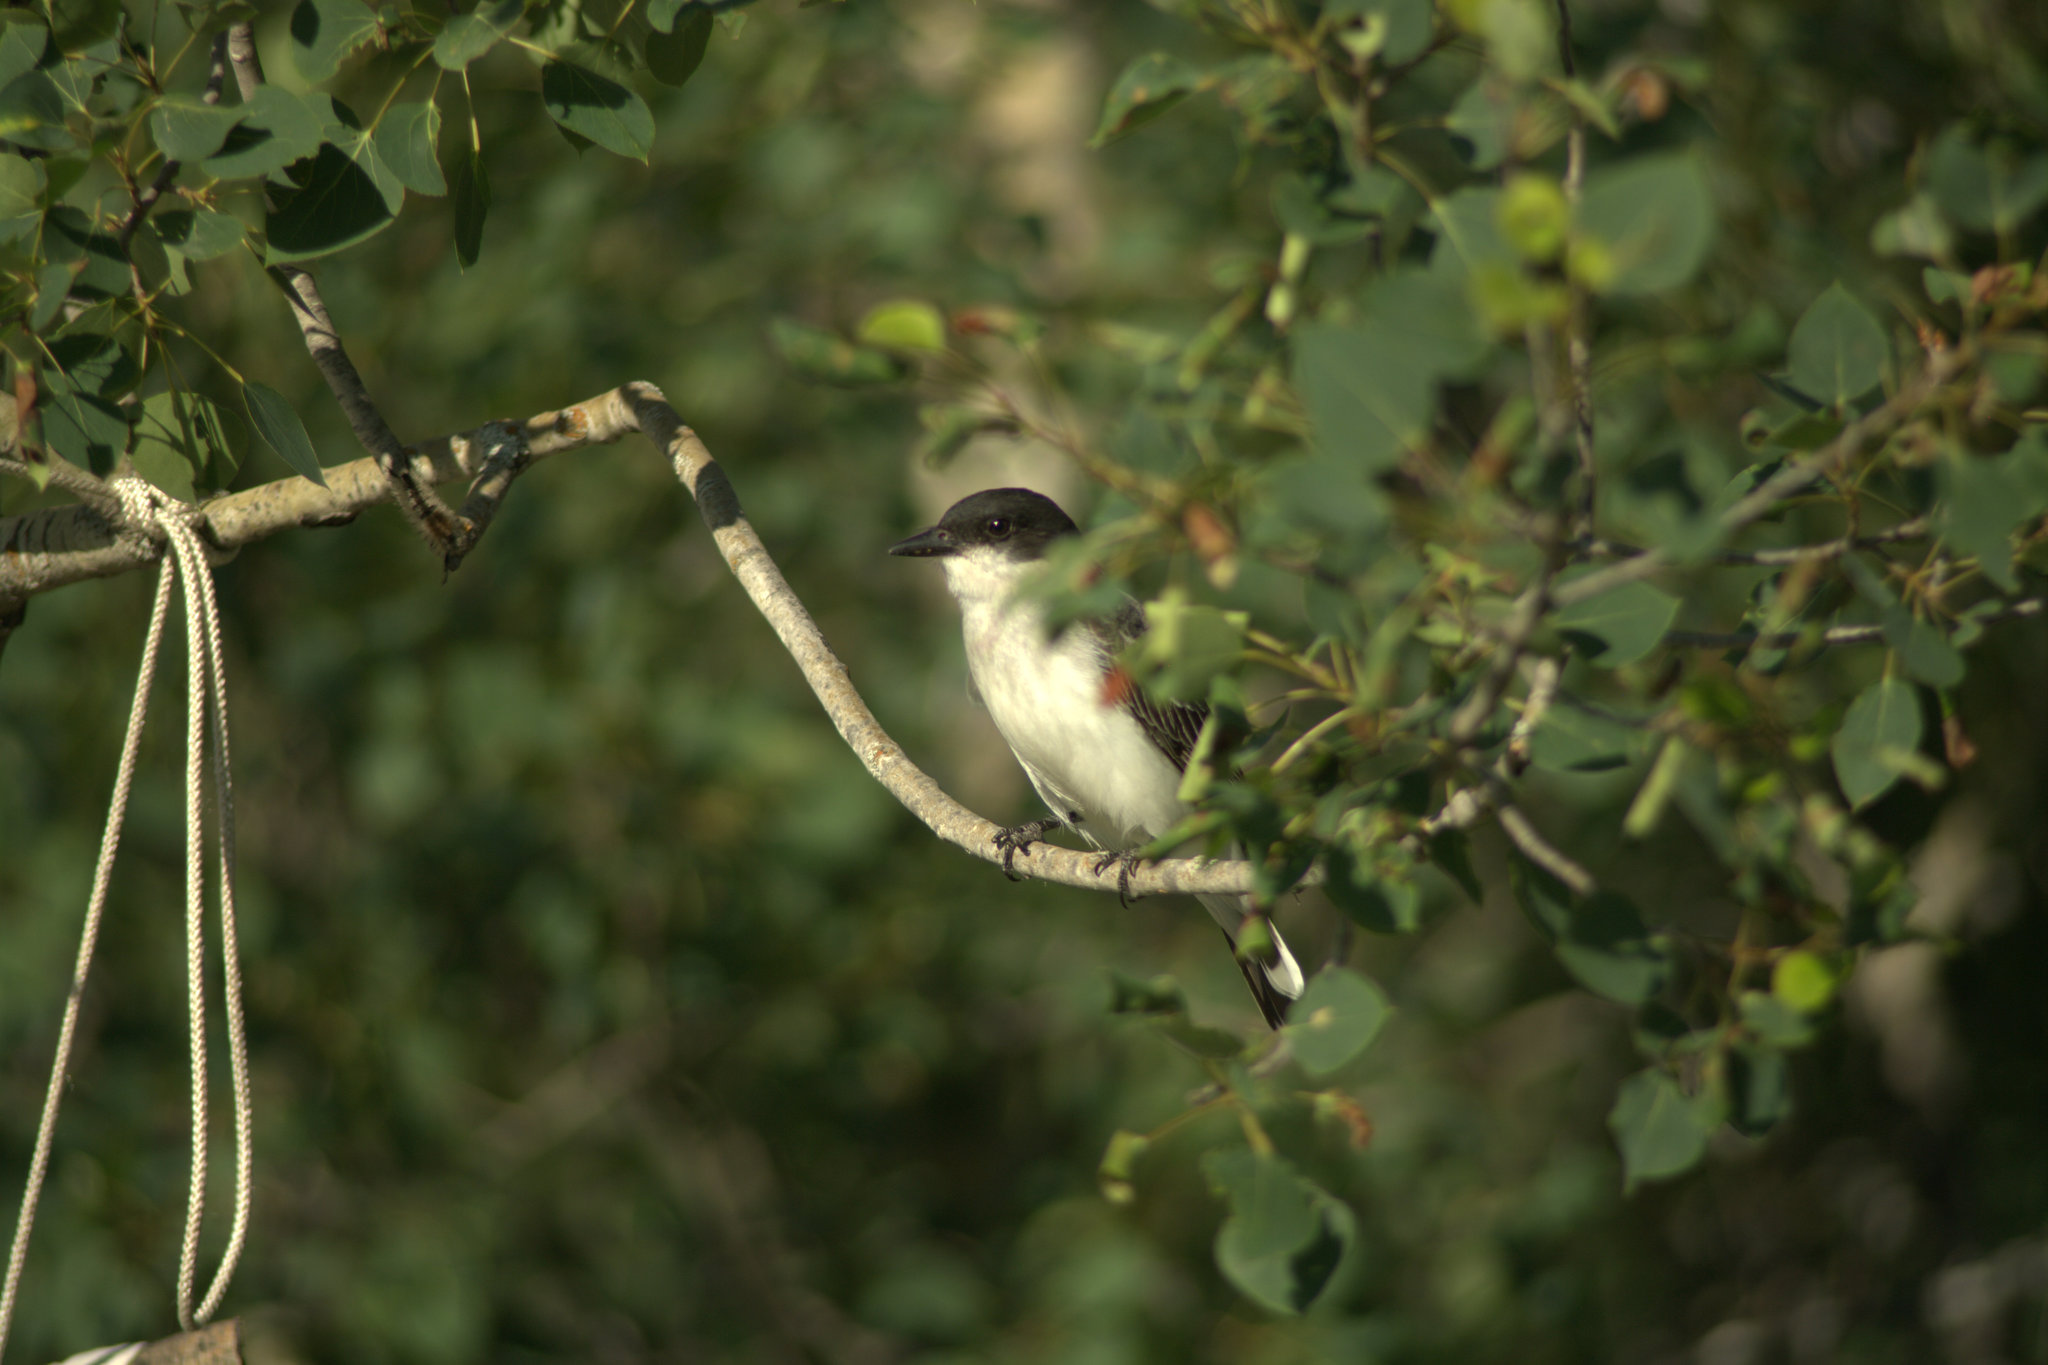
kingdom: Animalia
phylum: Chordata
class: Aves
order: Passeriformes
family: Tyrannidae
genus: Tyrannus
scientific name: Tyrannus tyrannus
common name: Eastern kingbird
